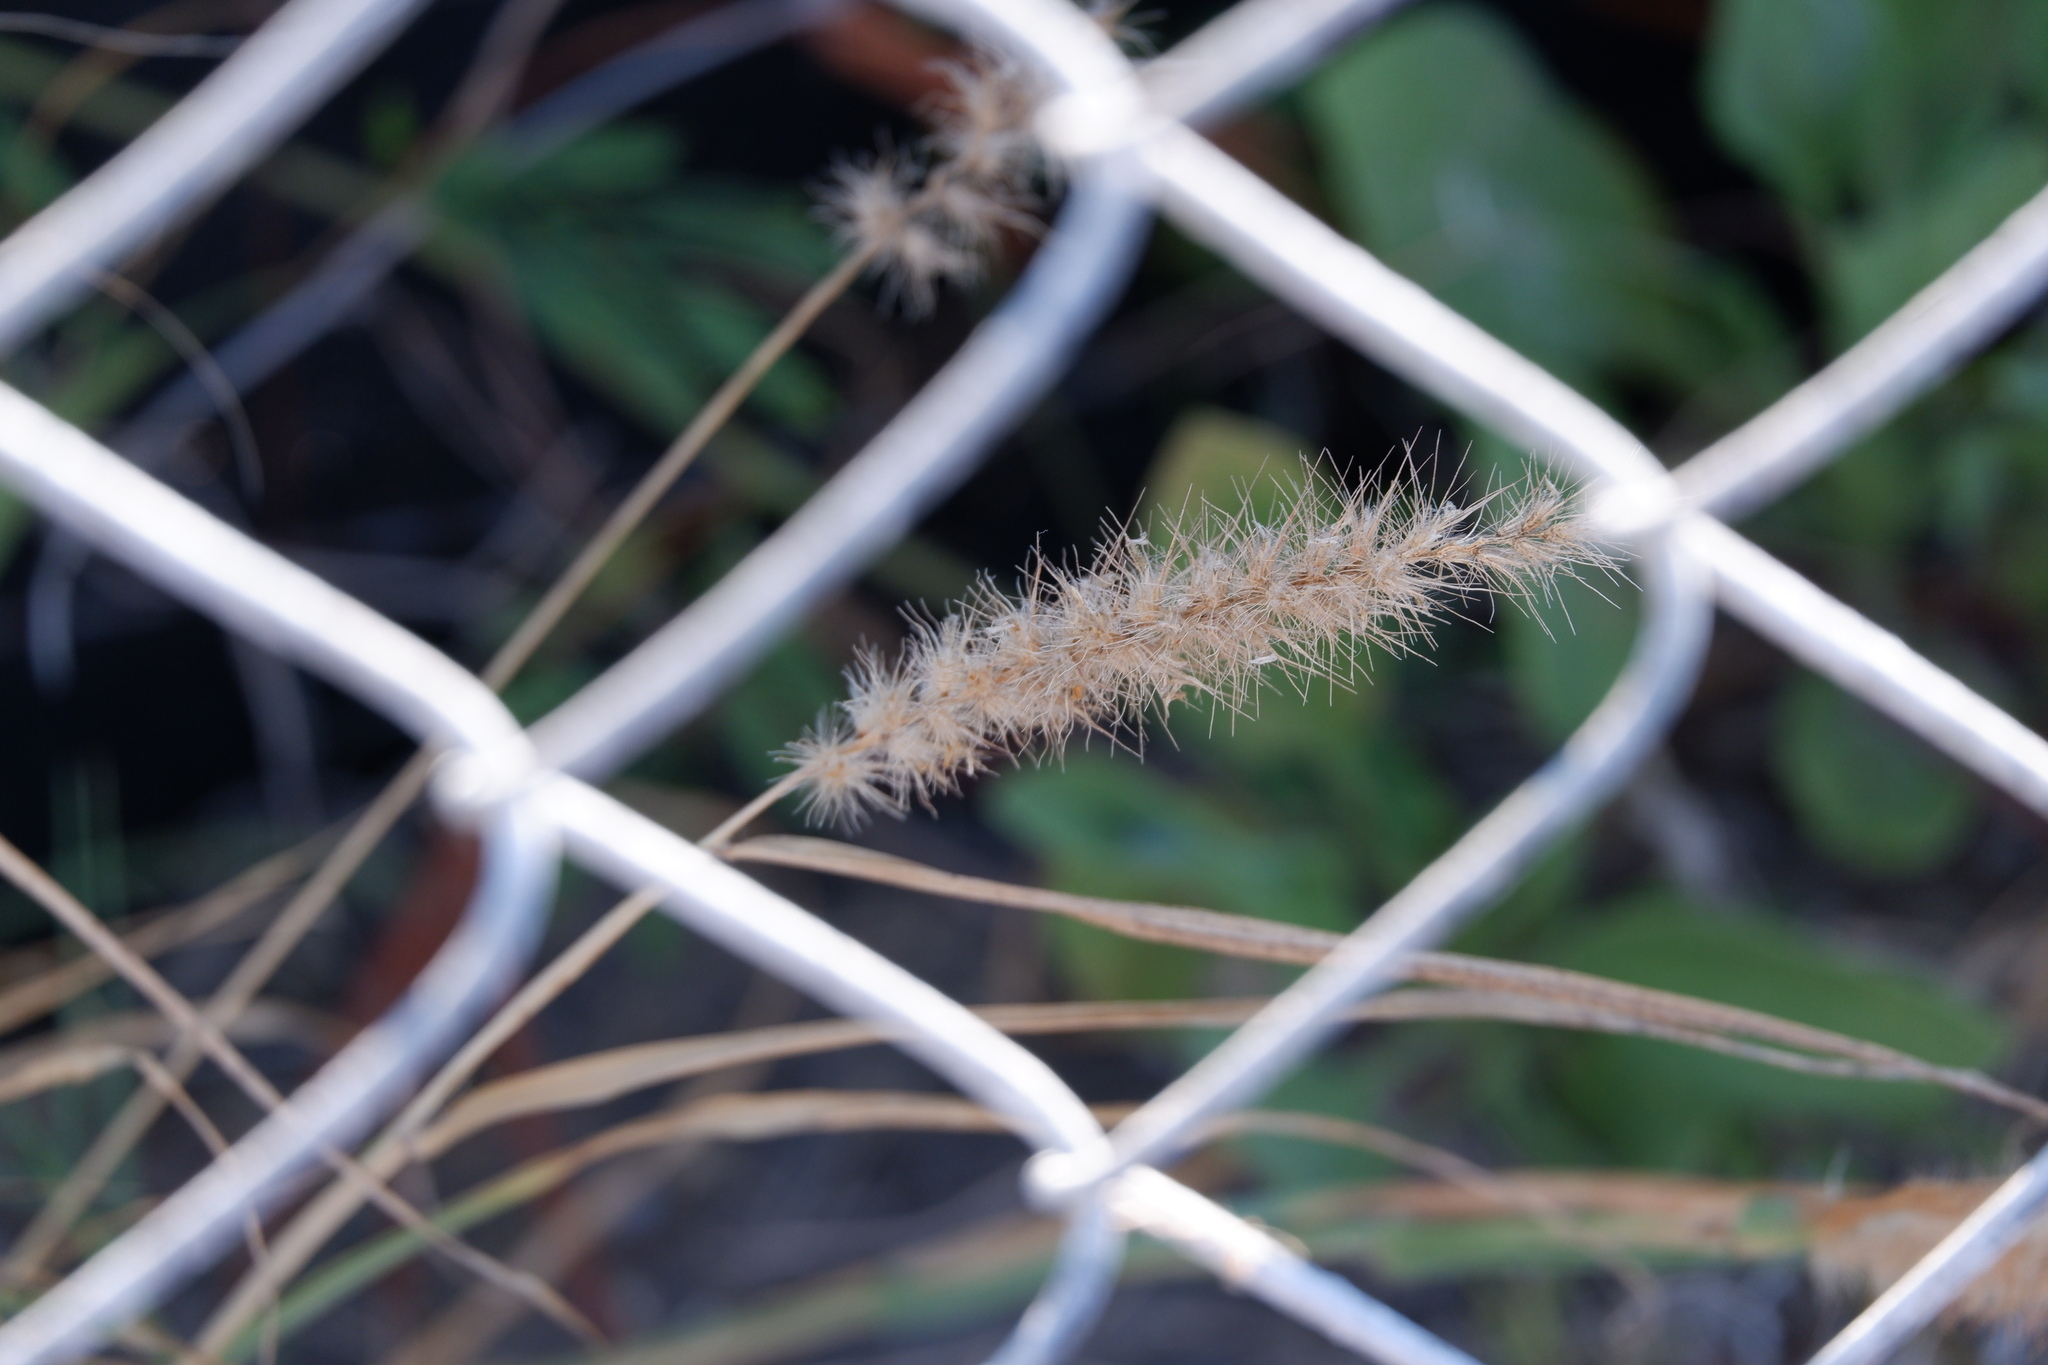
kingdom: Plantae
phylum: Tracheophyta
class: Liliopsida
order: Poales
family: Poaceae
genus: Cenchrus
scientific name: Cenchrus ciliaris
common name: Buffelgrass
